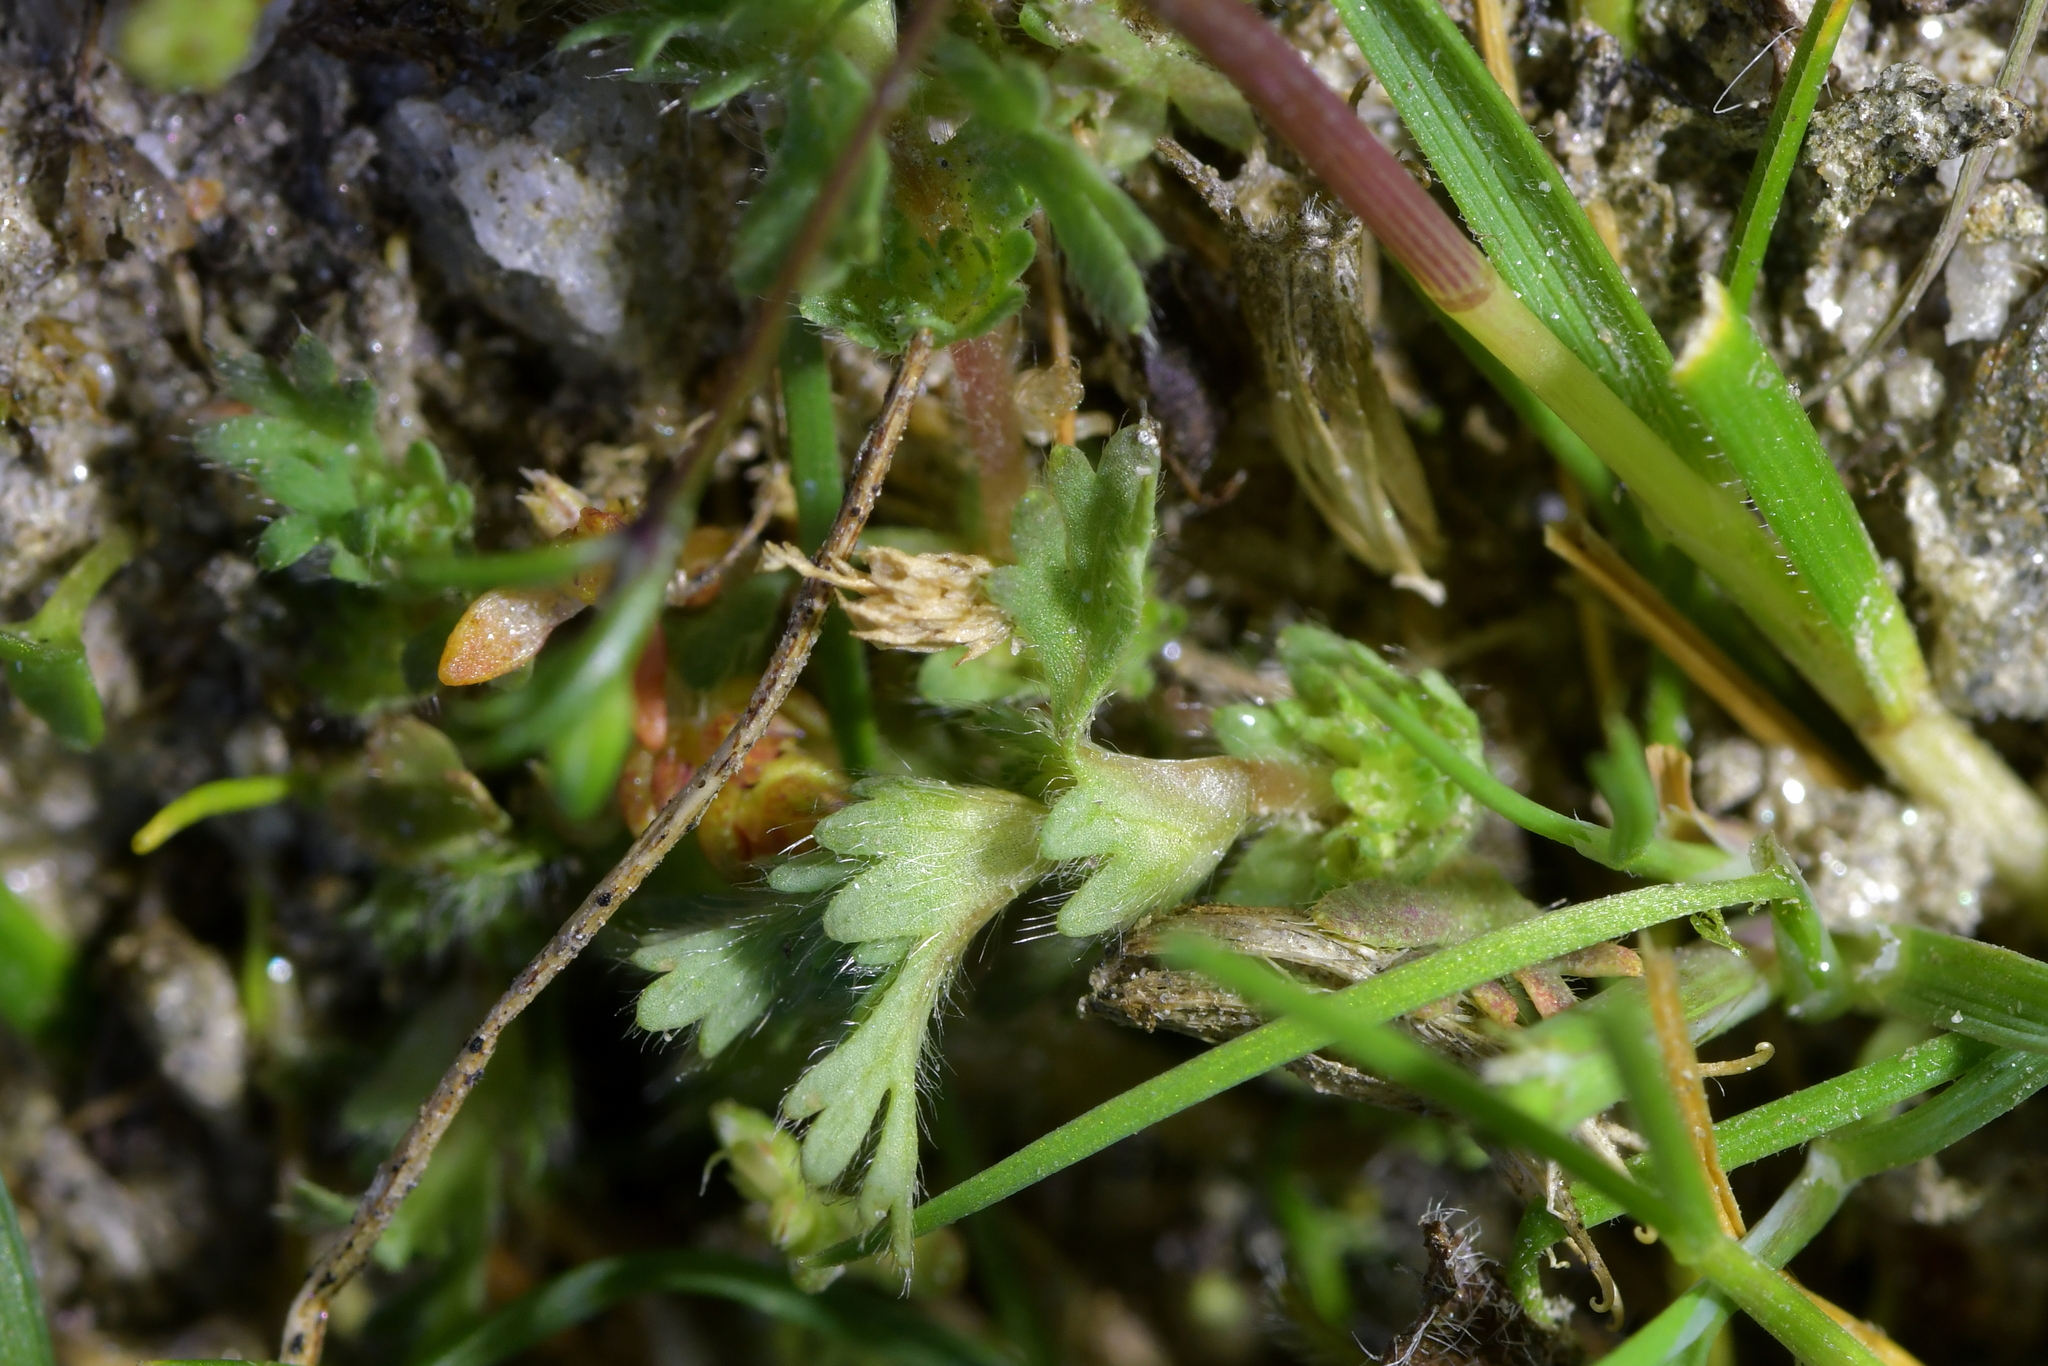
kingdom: Plantae
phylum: Tracheophyta
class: Magnoliopsida
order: Rosales
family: Rosaceae
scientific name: Rosaceae
